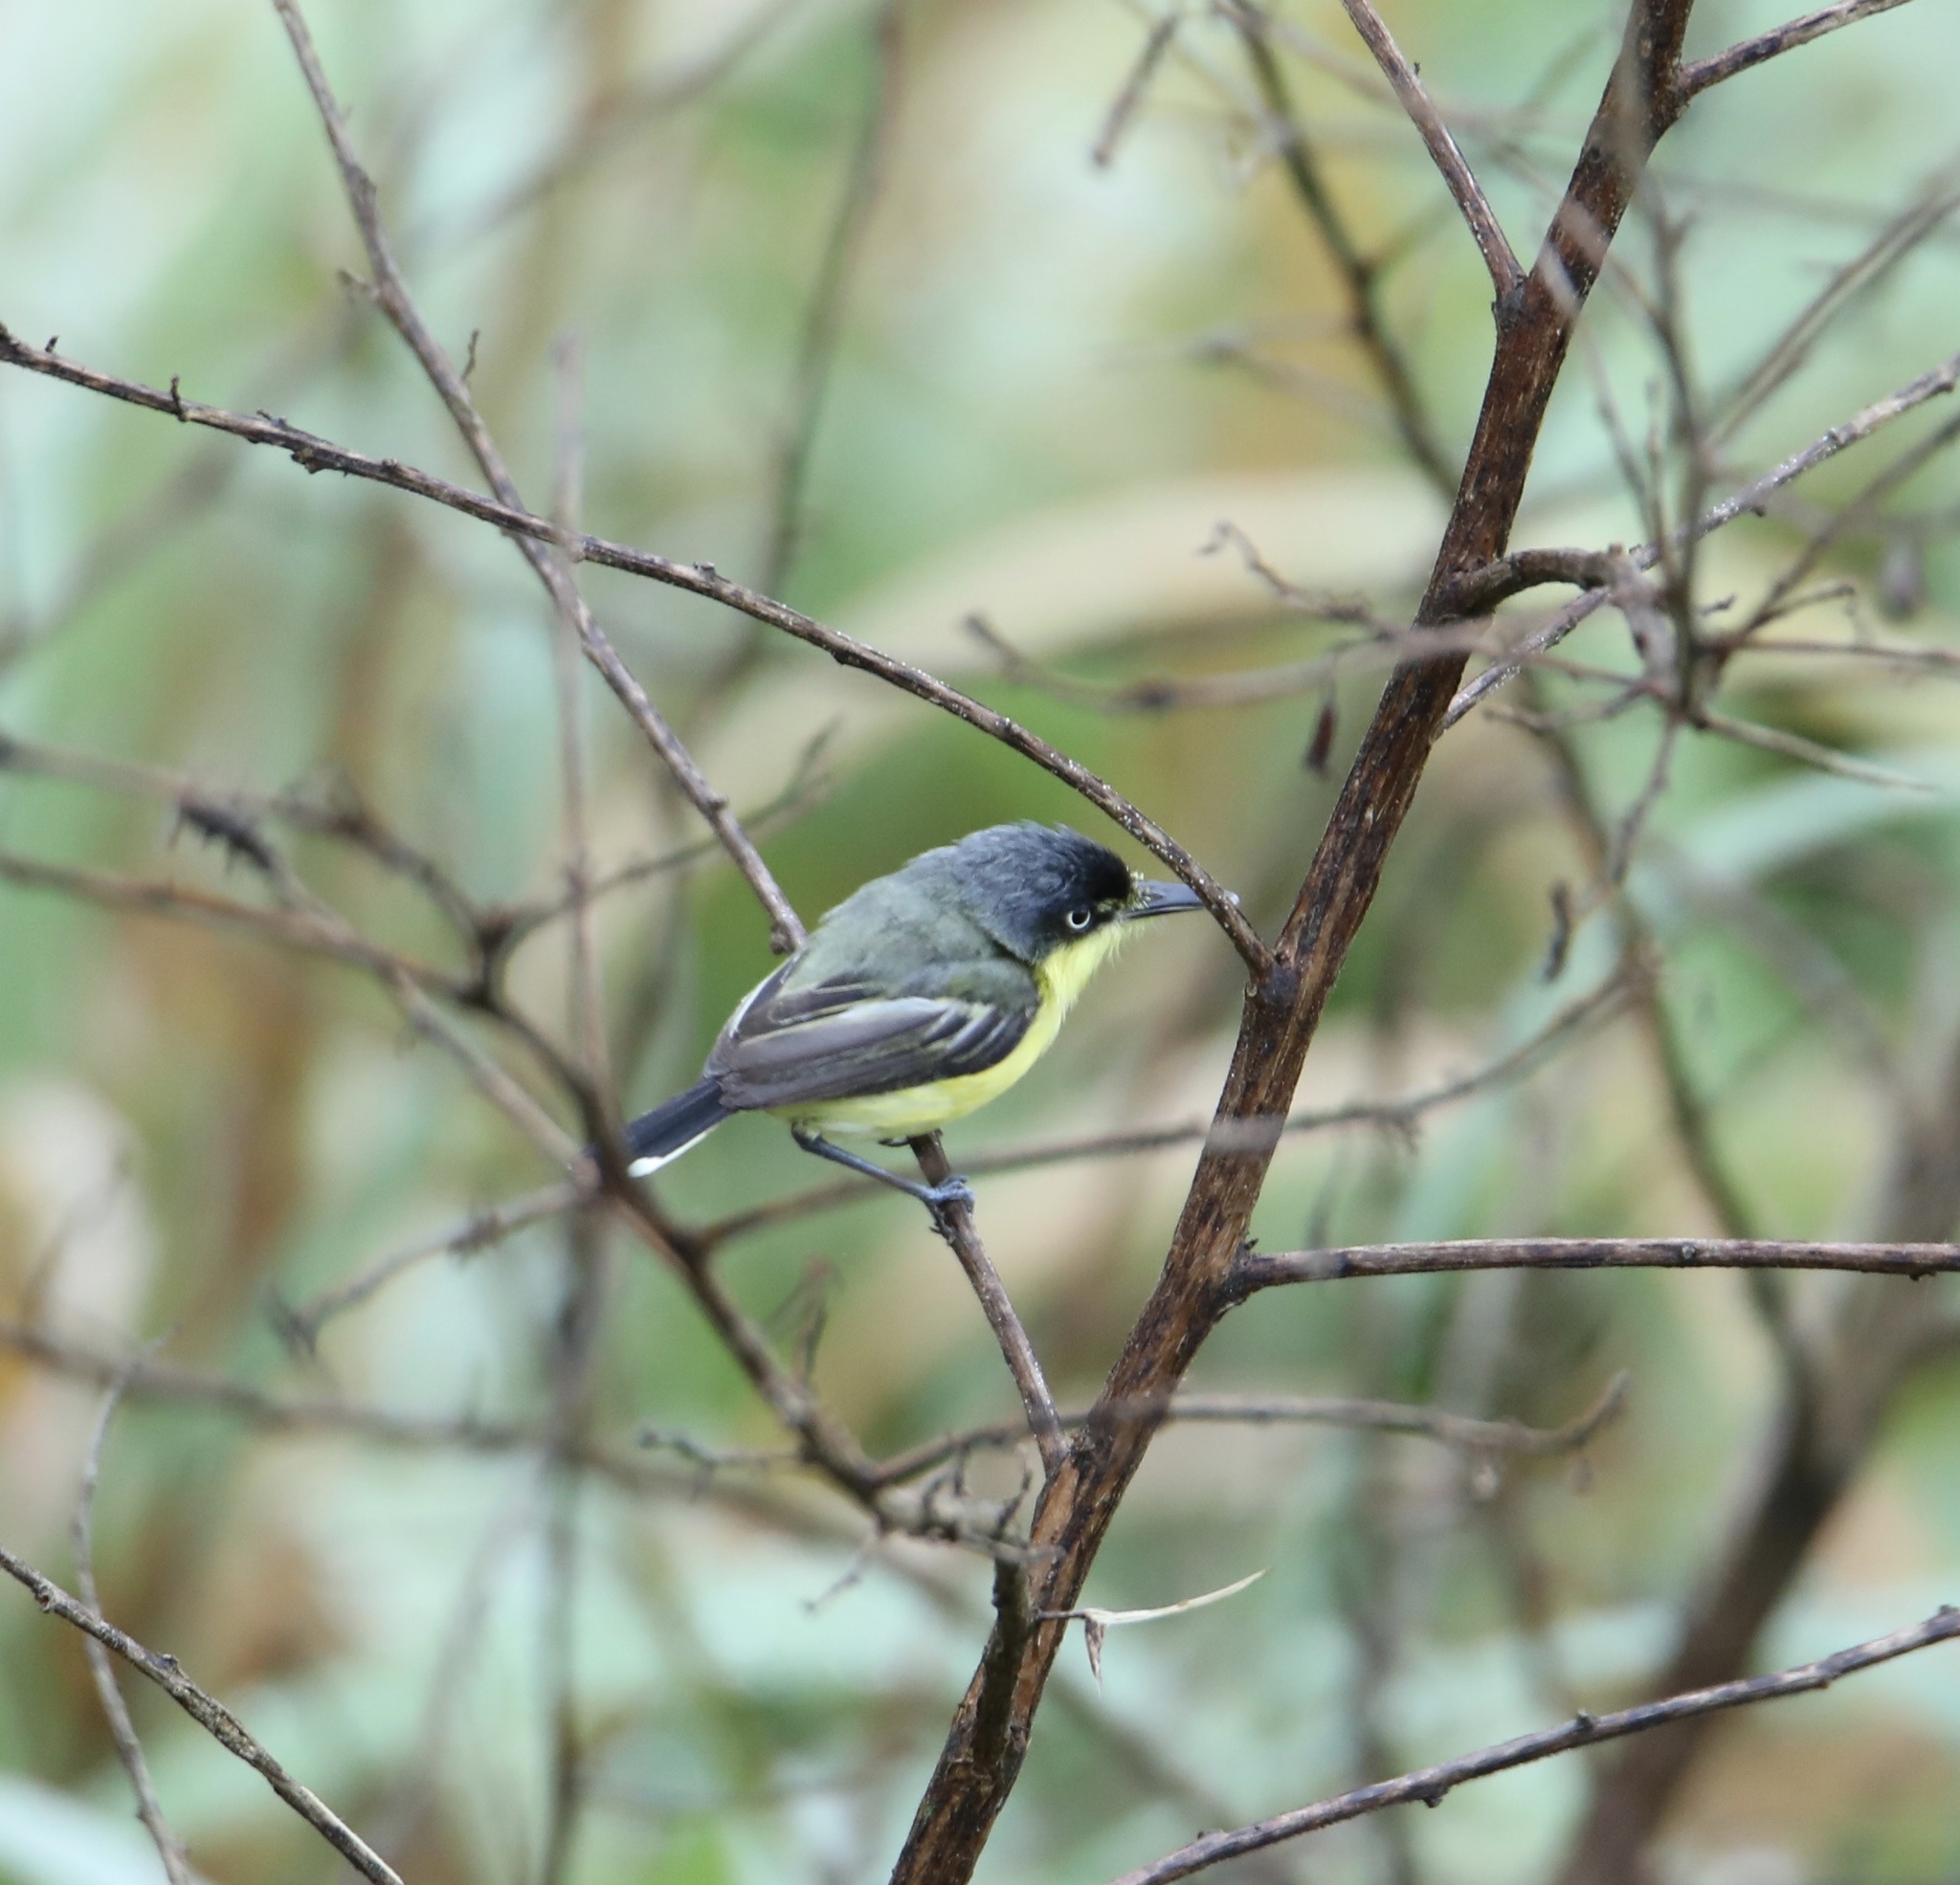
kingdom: Animalia
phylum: Chordata
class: Aves
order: Passeriformes
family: Tyrannidae
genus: Todirostrum
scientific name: Todirostrum cinereum
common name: Common tody-flycatcher
